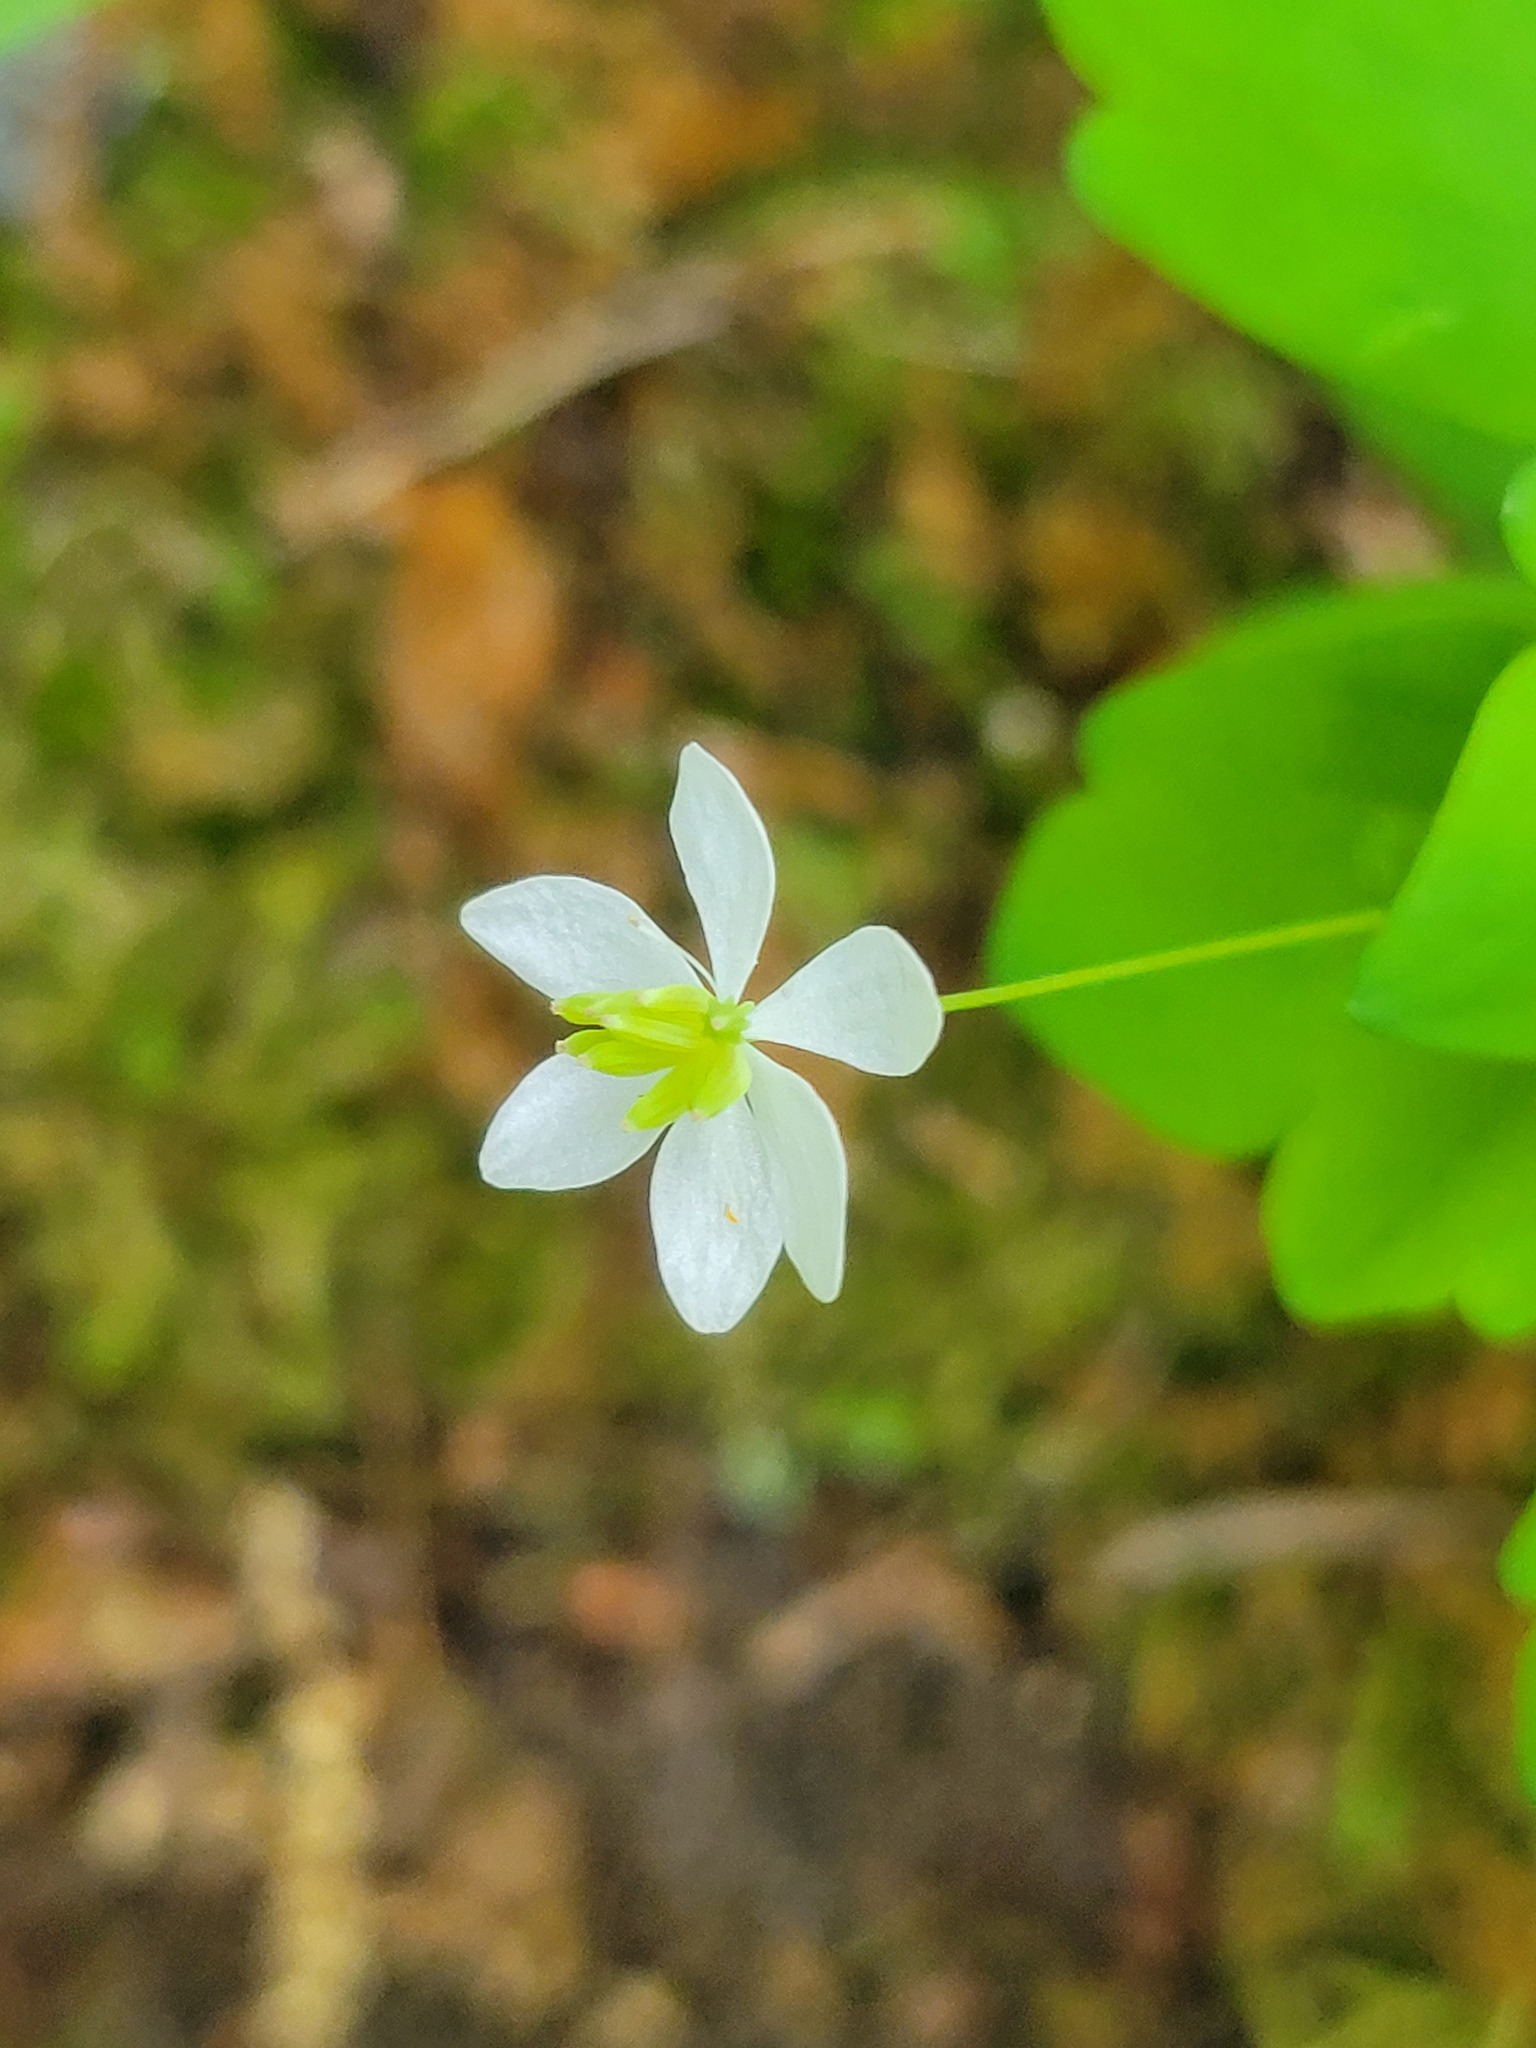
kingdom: Plantae
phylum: Tracheophyta
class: Magnoliopsida
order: Ranunculales
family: Ranunculaceae
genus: Thalictrum
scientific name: Thalictrum thalictroides
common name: Rue-anemone
